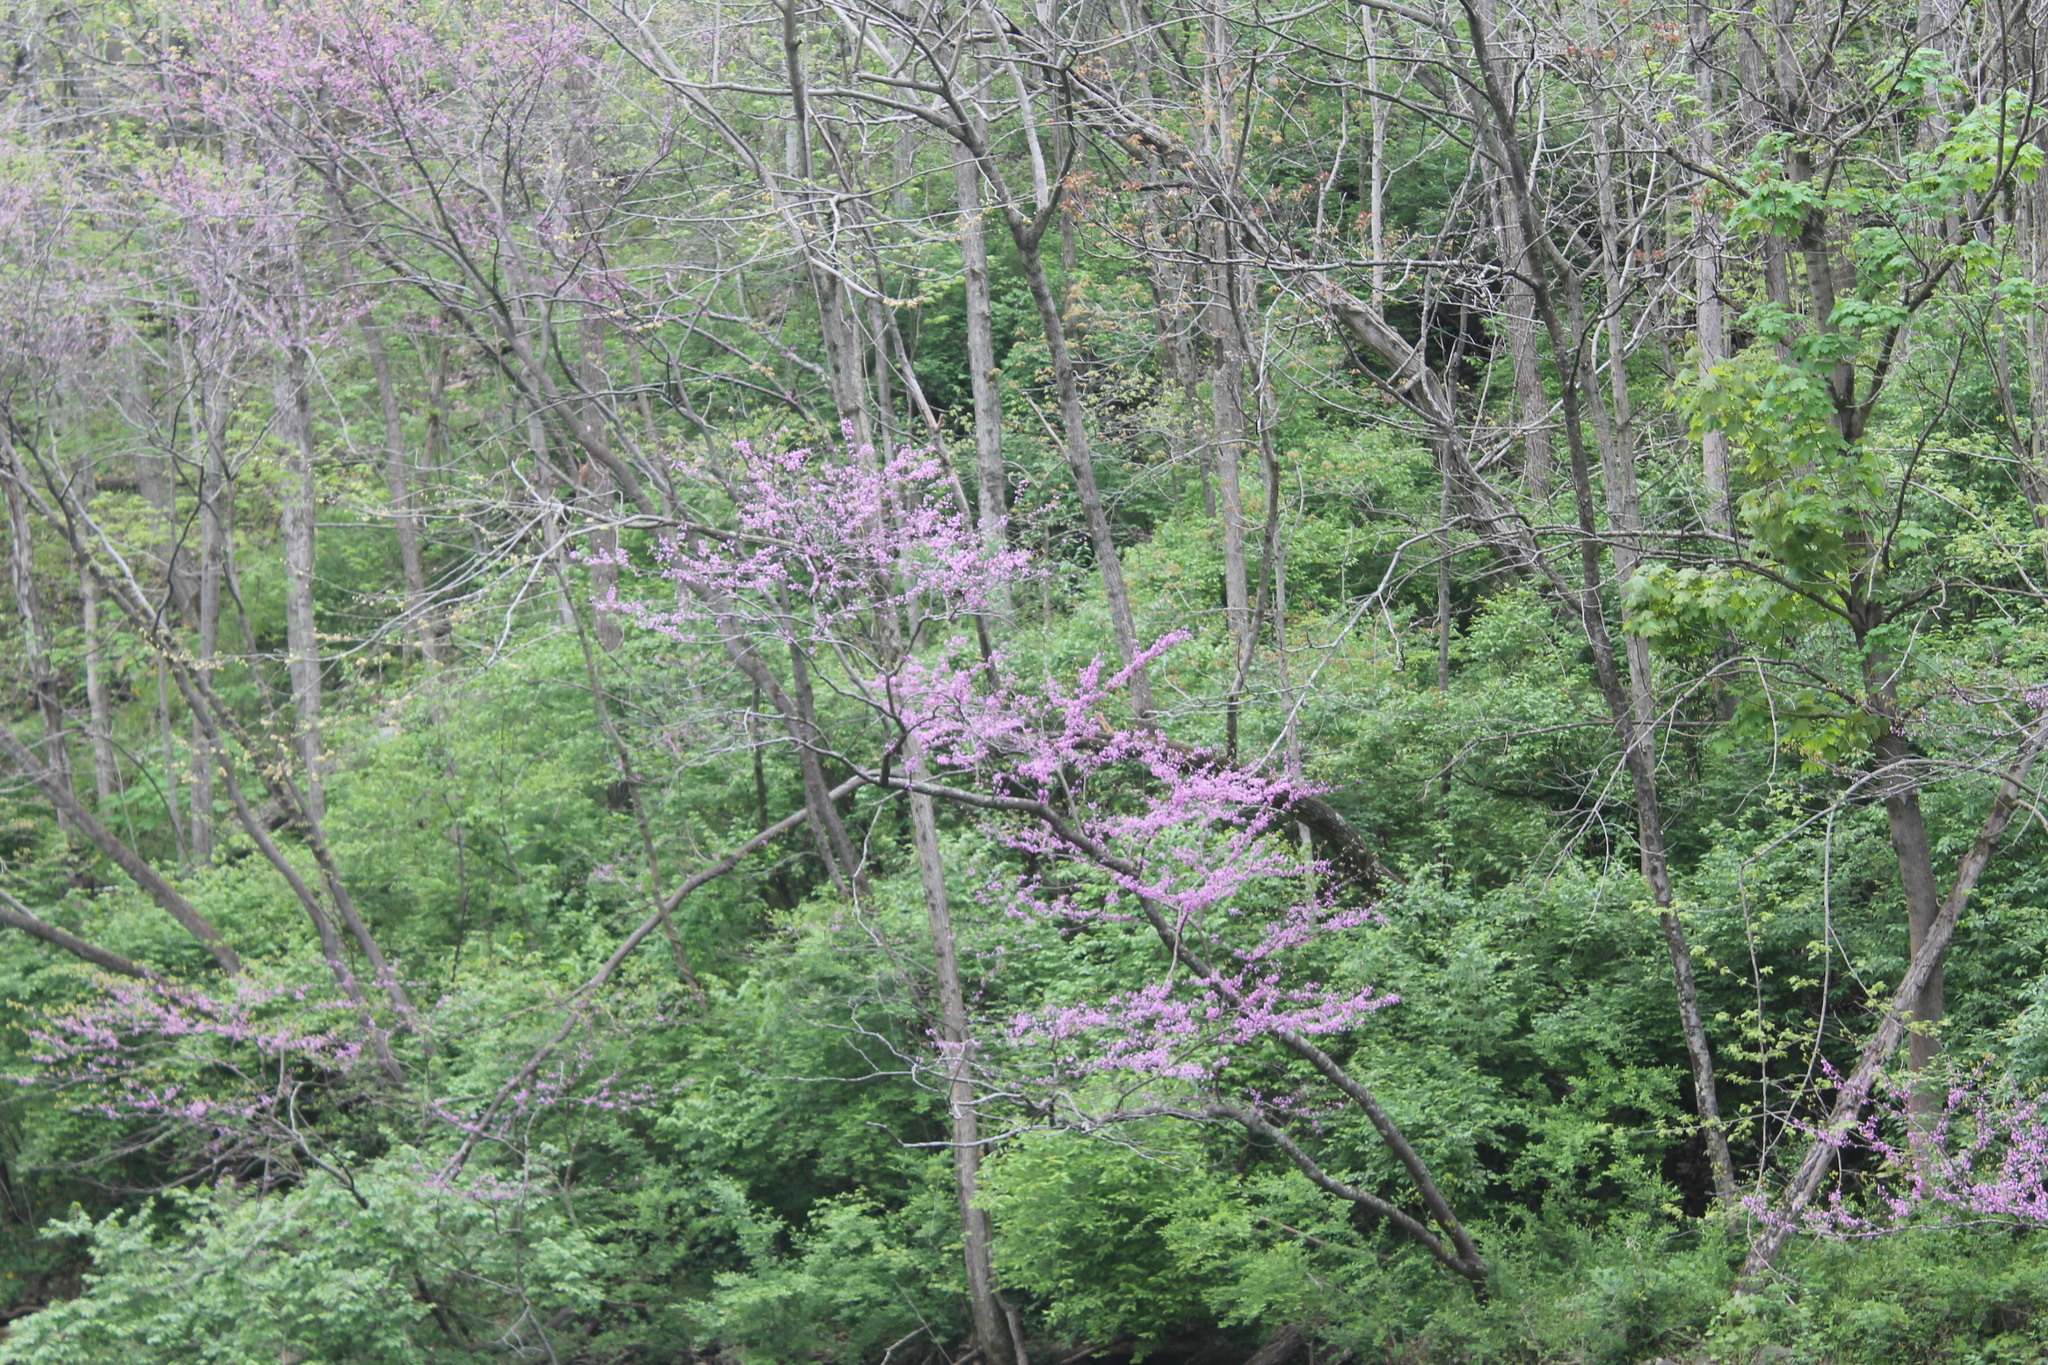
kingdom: Plantae
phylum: Tracheophyta
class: Magnoliopsida
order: Fabales
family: Fabaceae
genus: Cercis
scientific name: Cercis canadensis
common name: Eastern redbud
